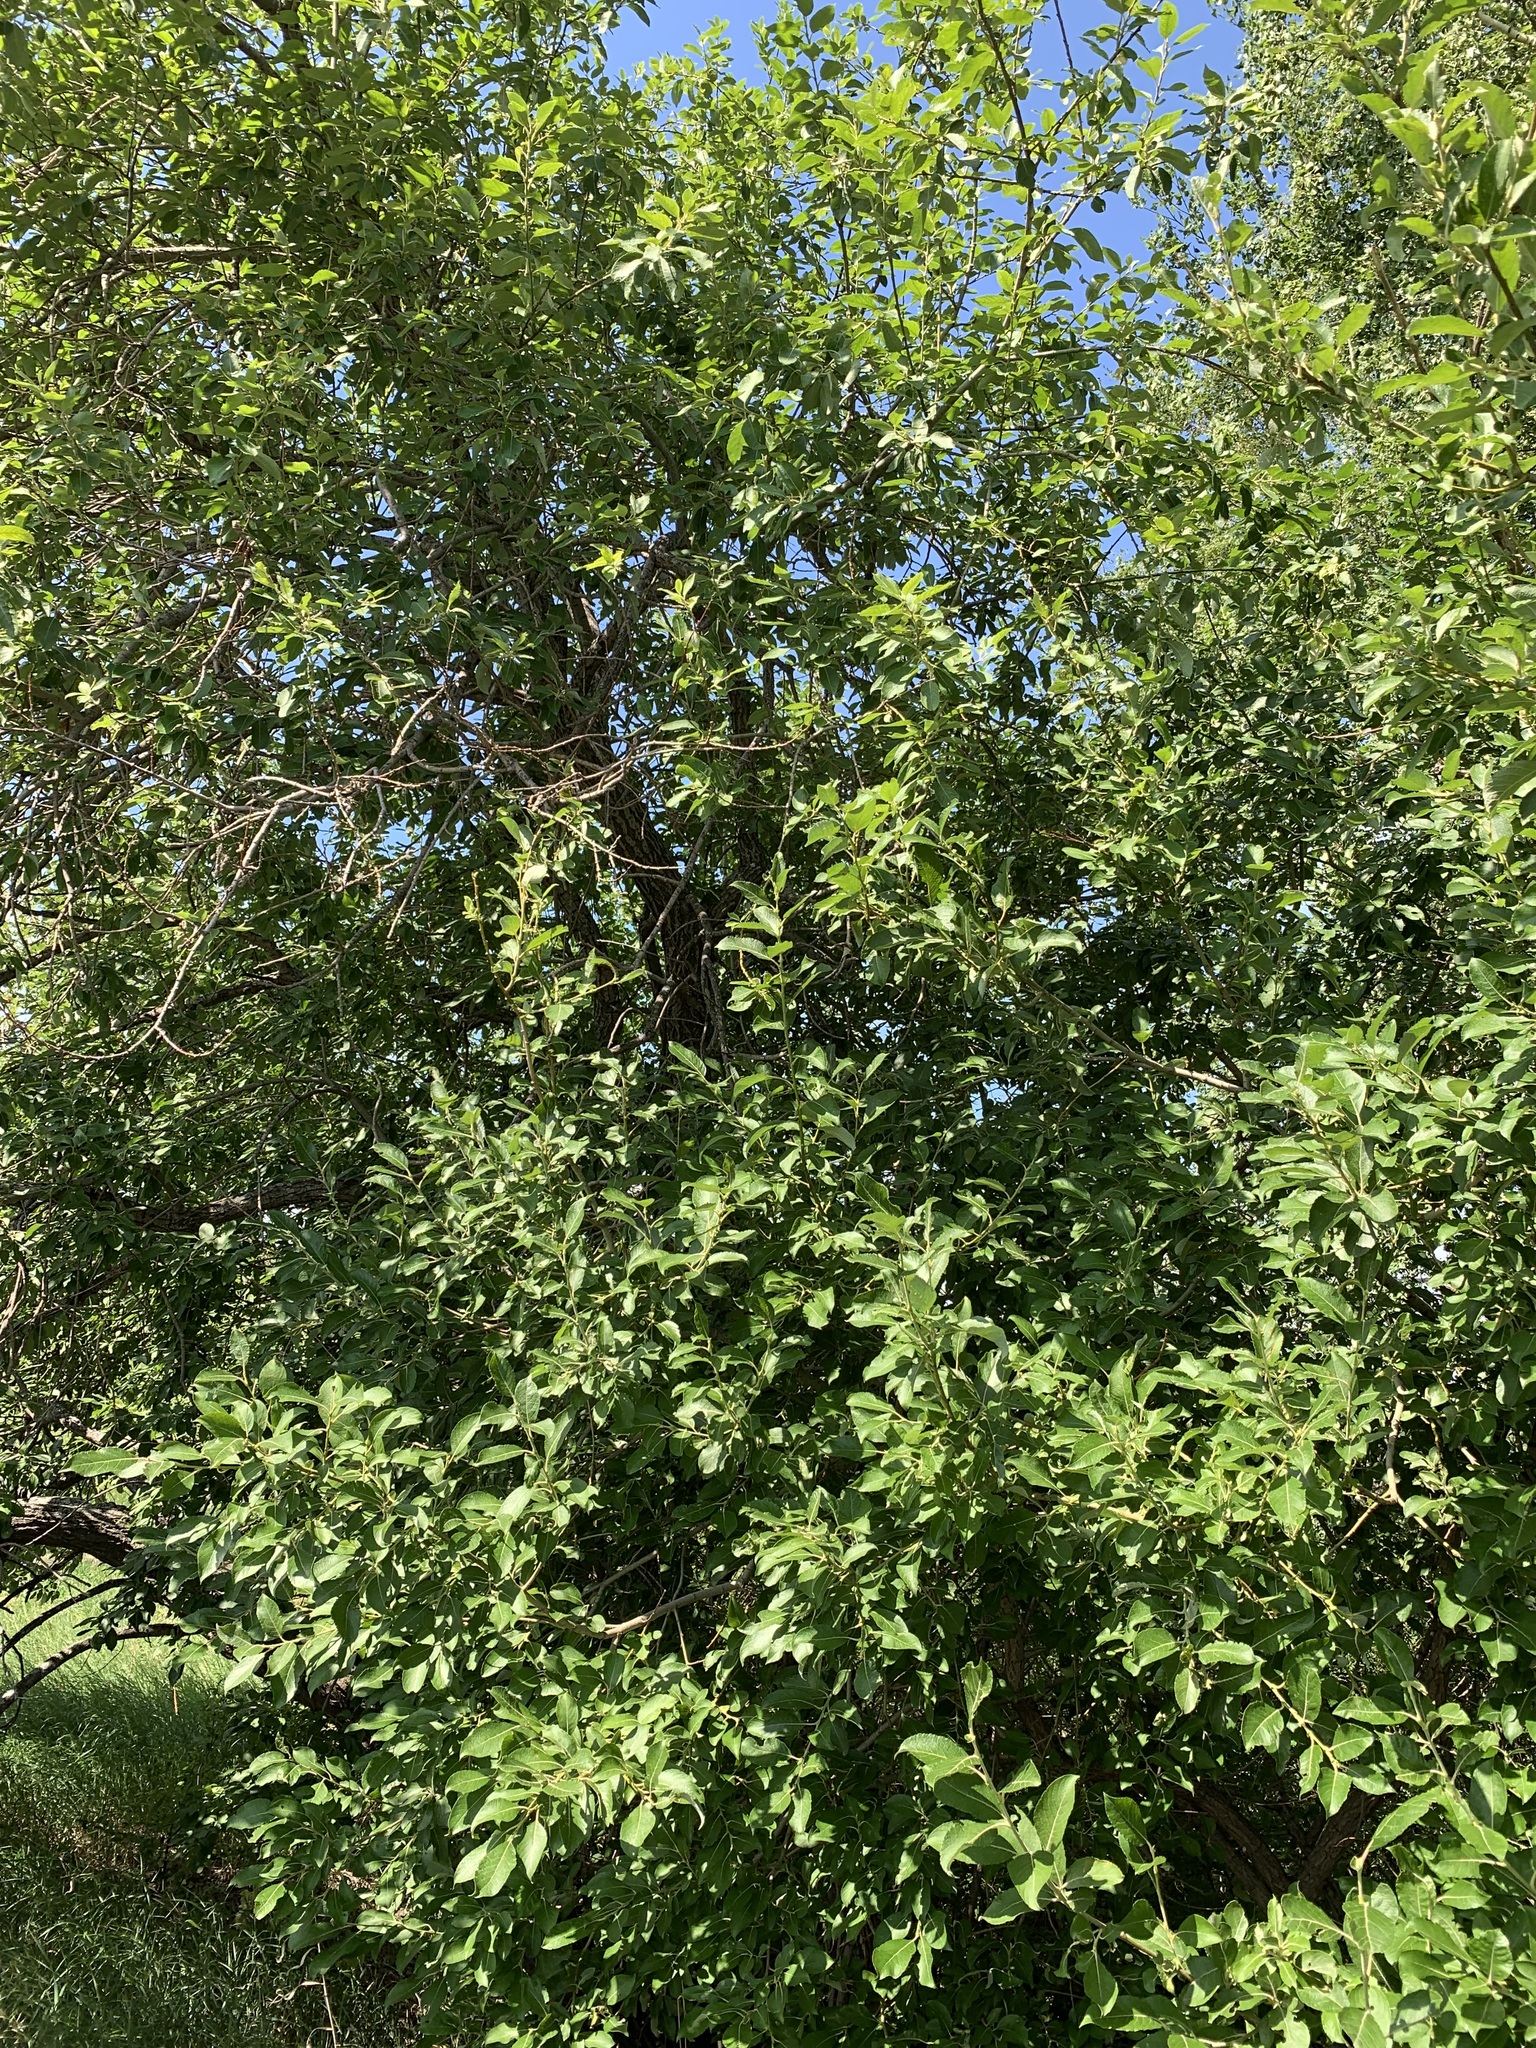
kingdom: Plantae
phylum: Tracheophyta
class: Magnoliopsida
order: Malpighiales
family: Salicaceae
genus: Salix
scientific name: Salix caprea
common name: Goat willow
